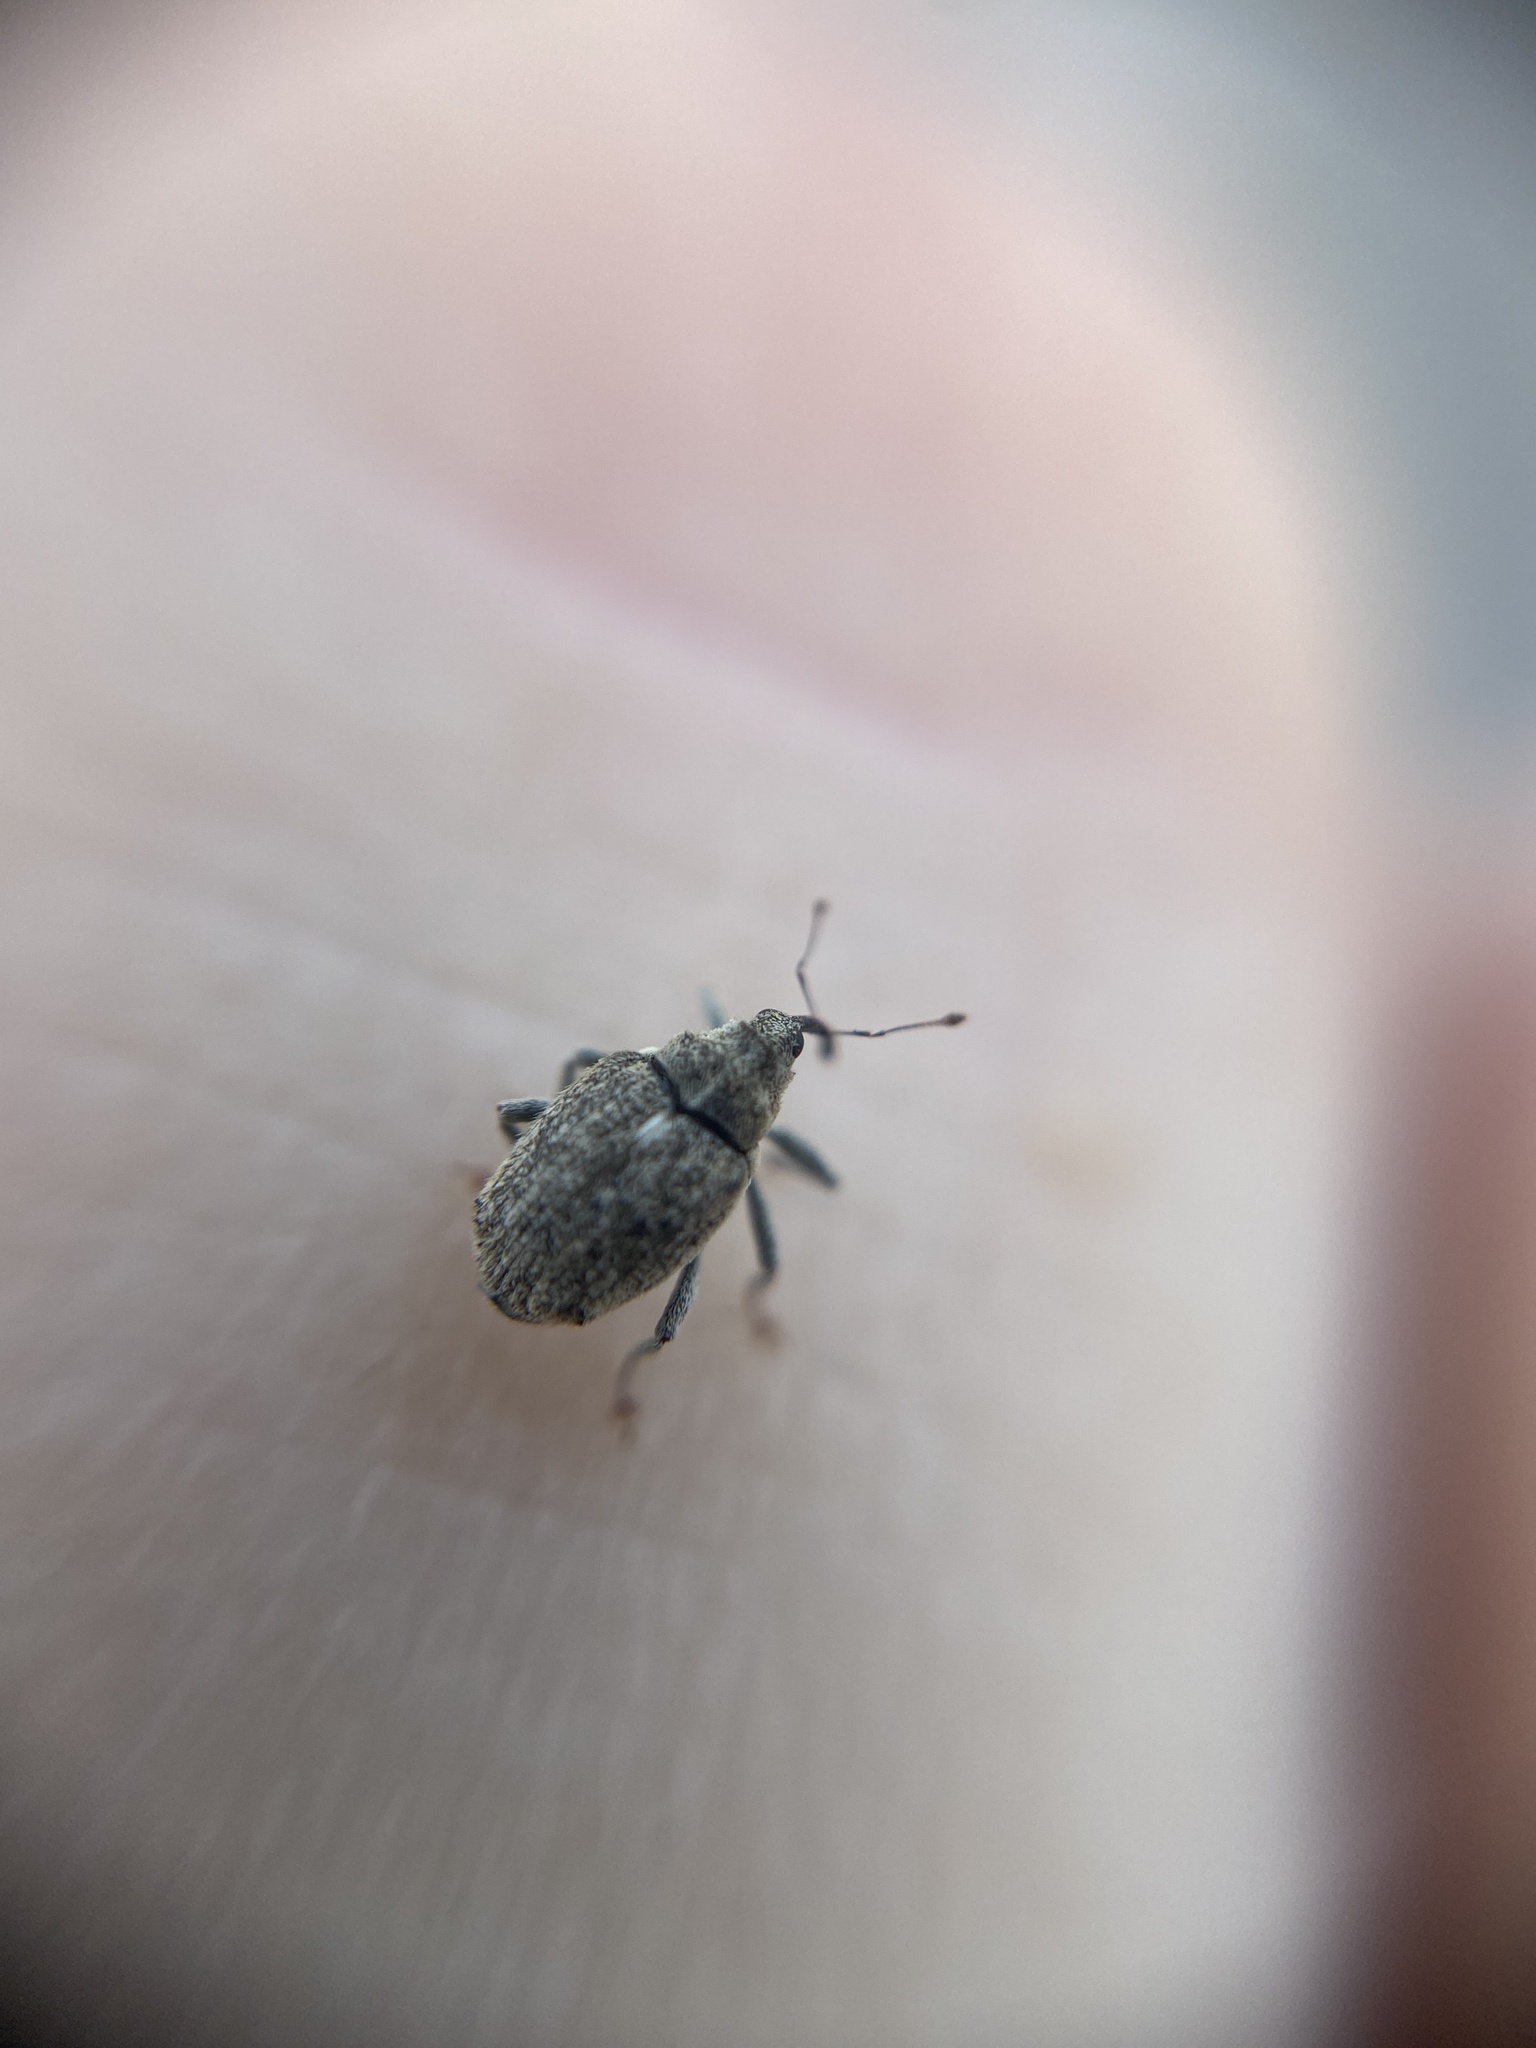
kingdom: Animalia
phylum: Arthropoda
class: Insecta
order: Coleoptera
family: Curculionidae
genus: Ceutorhynchus
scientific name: Ceutorhynchus pallidactylus
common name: Cabbage stem weavil
